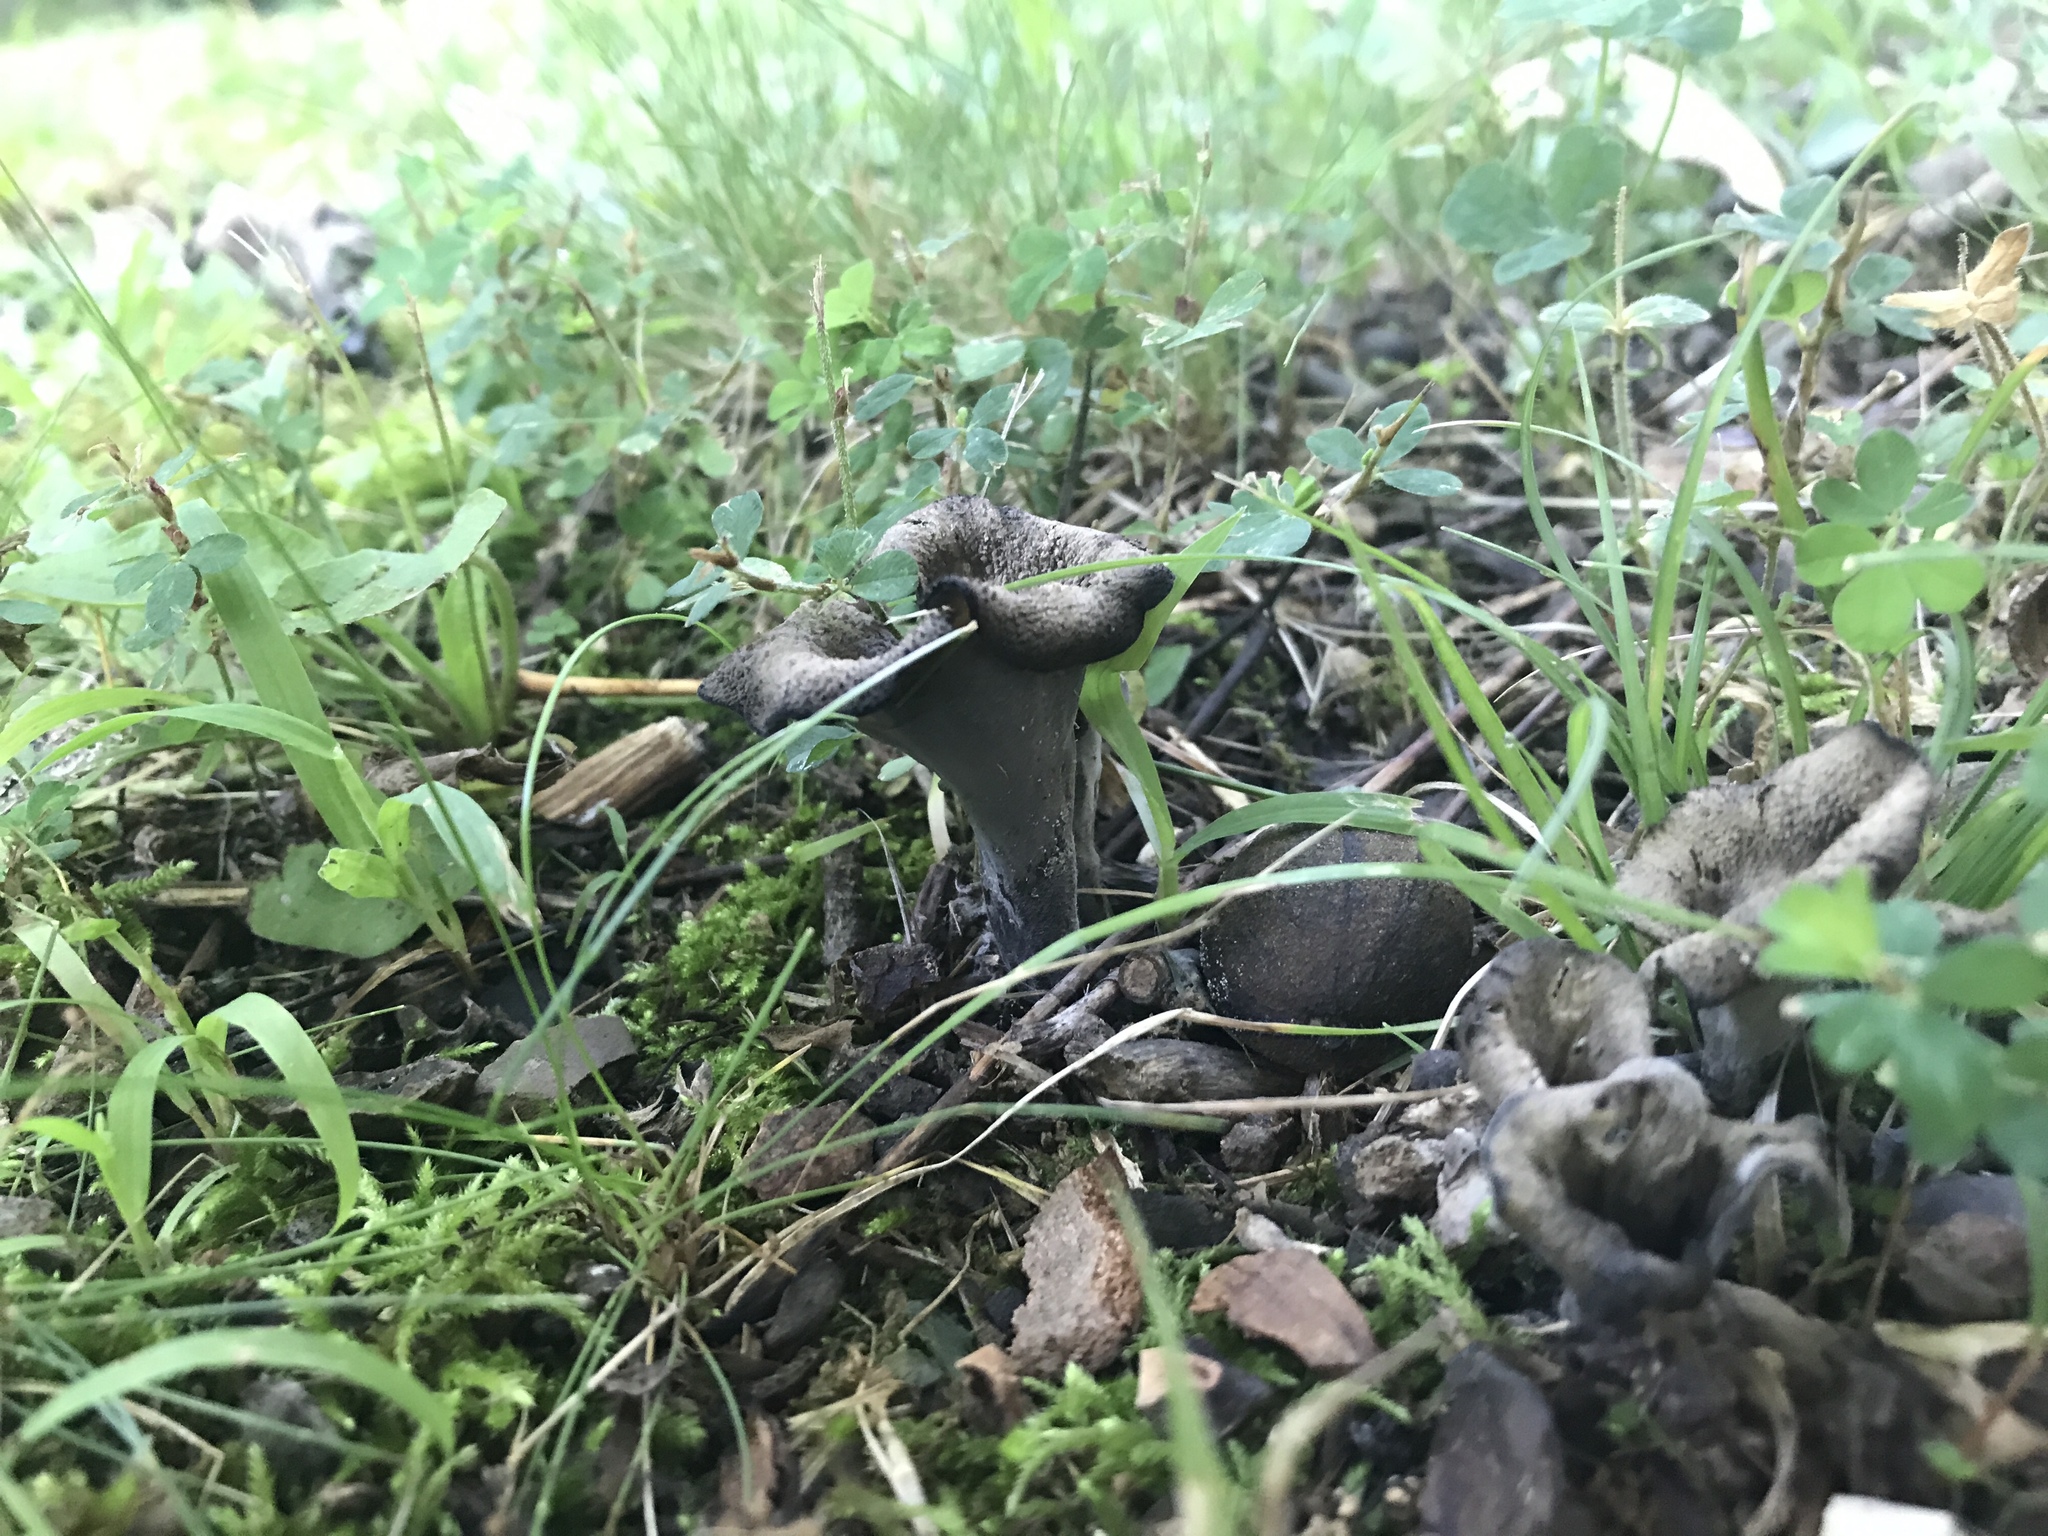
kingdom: Fungi
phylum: Basidiomycota
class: Agaricomycetes
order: Cantharellales
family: Hydnaceae
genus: Craterellus
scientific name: Craterellus cornucopioides
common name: Horn of plenty
